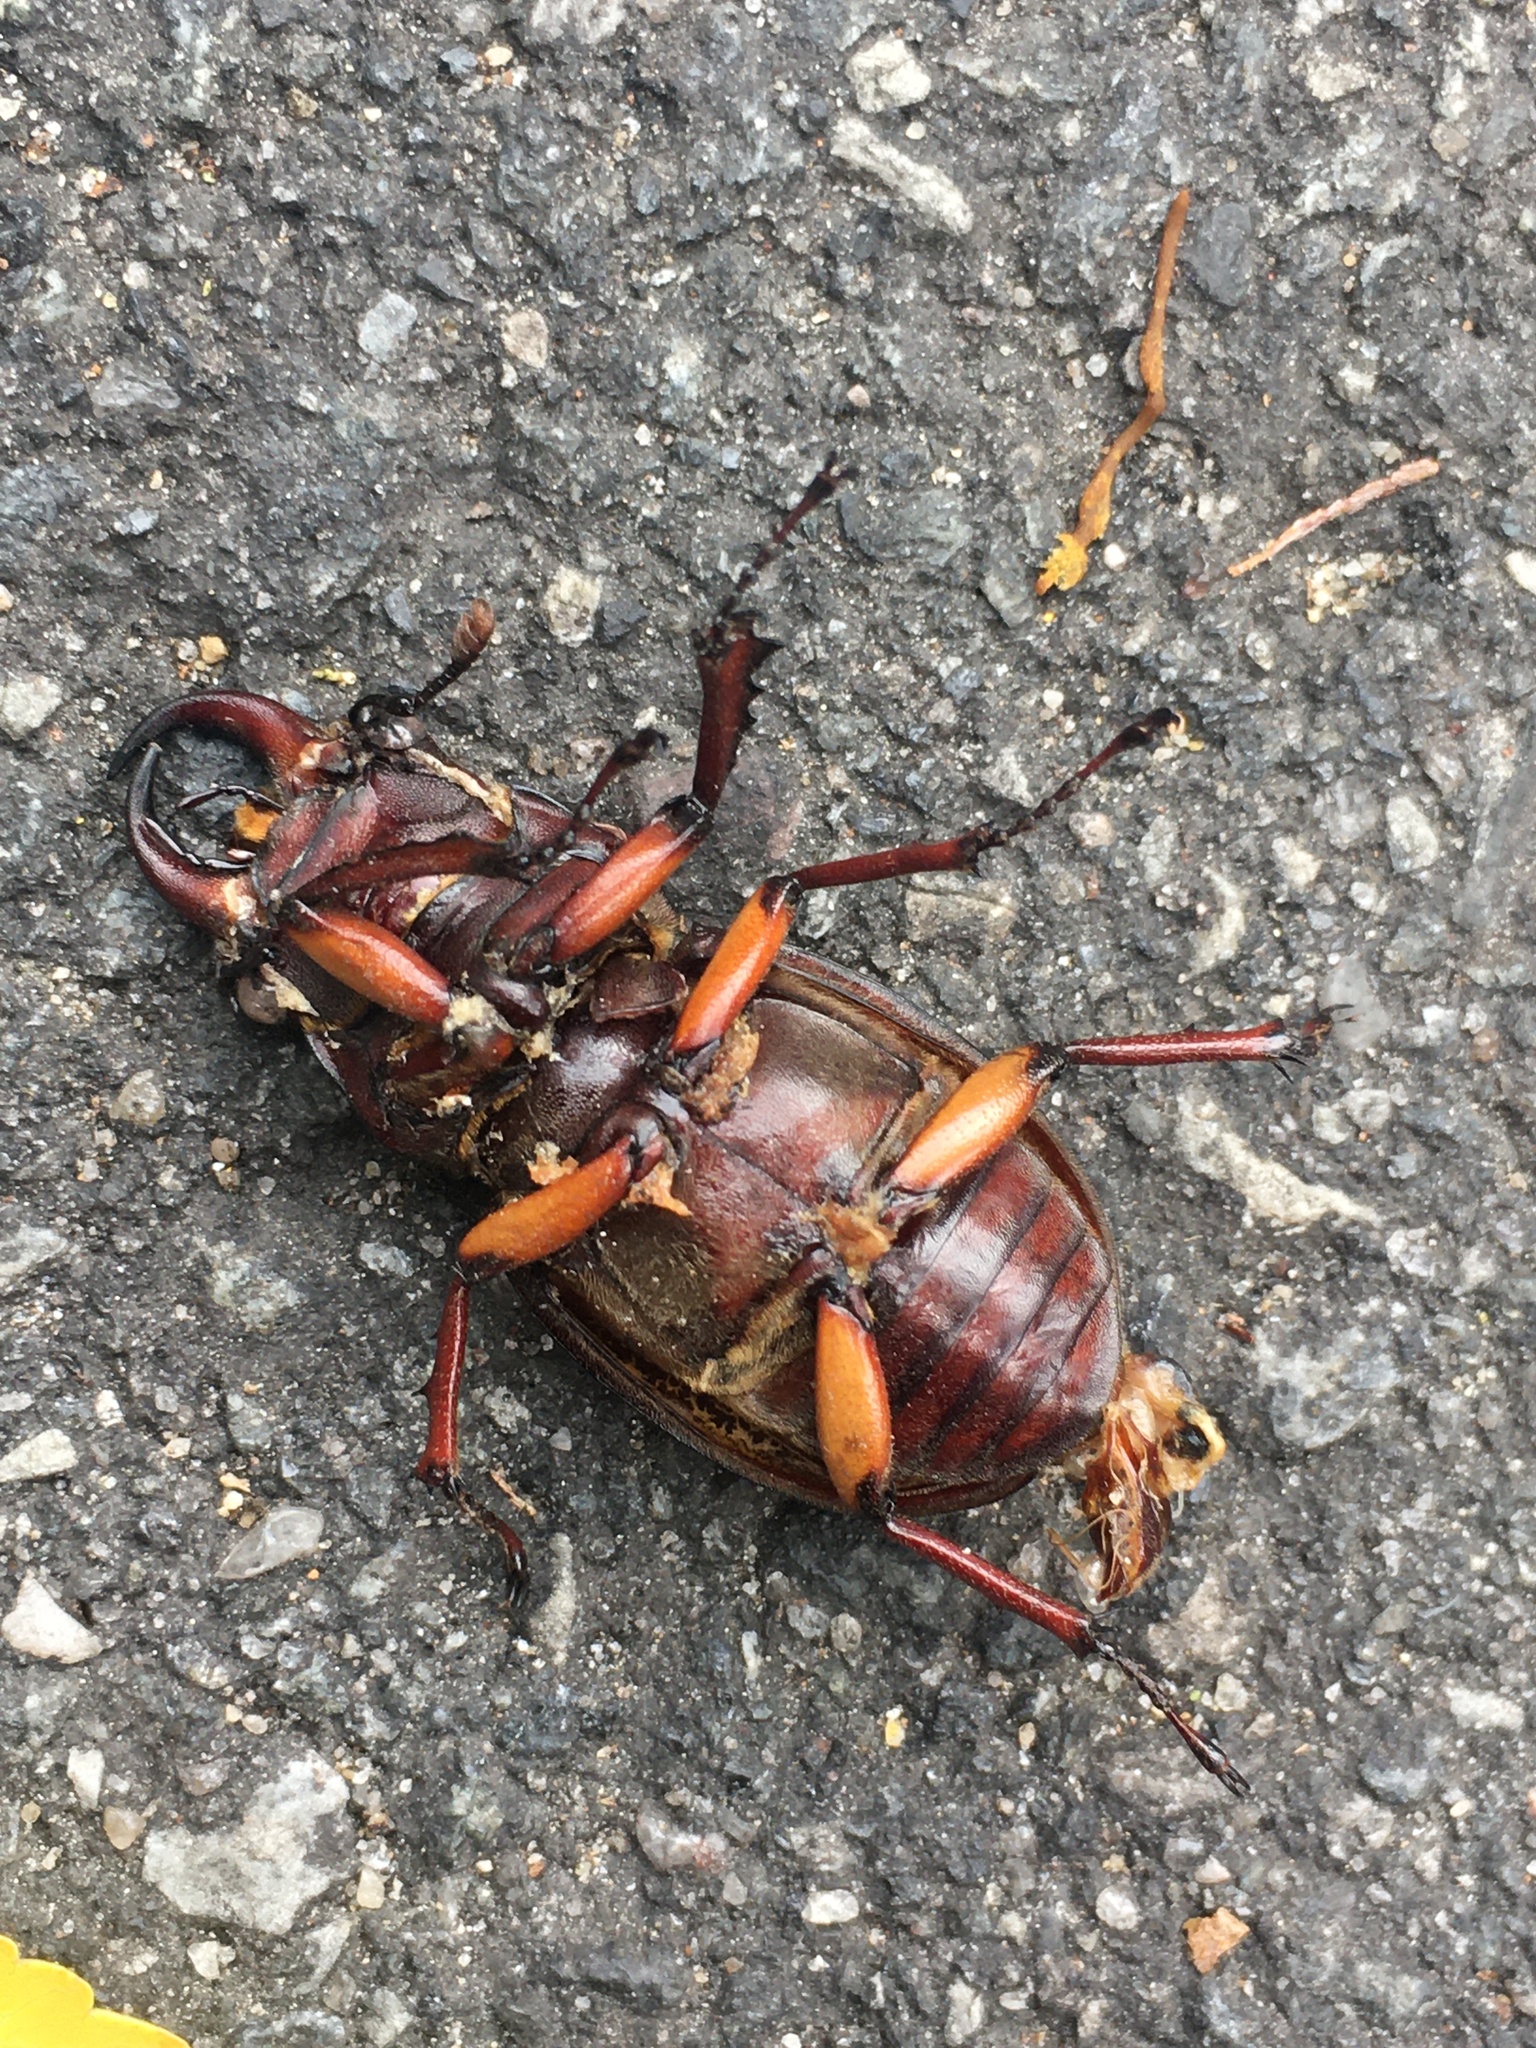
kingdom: Animalia
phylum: Arthropoda
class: Insecta
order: Coleoptera
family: Lucanidae
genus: Lucanus
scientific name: Lucanus capreolus
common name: Stag beetle
